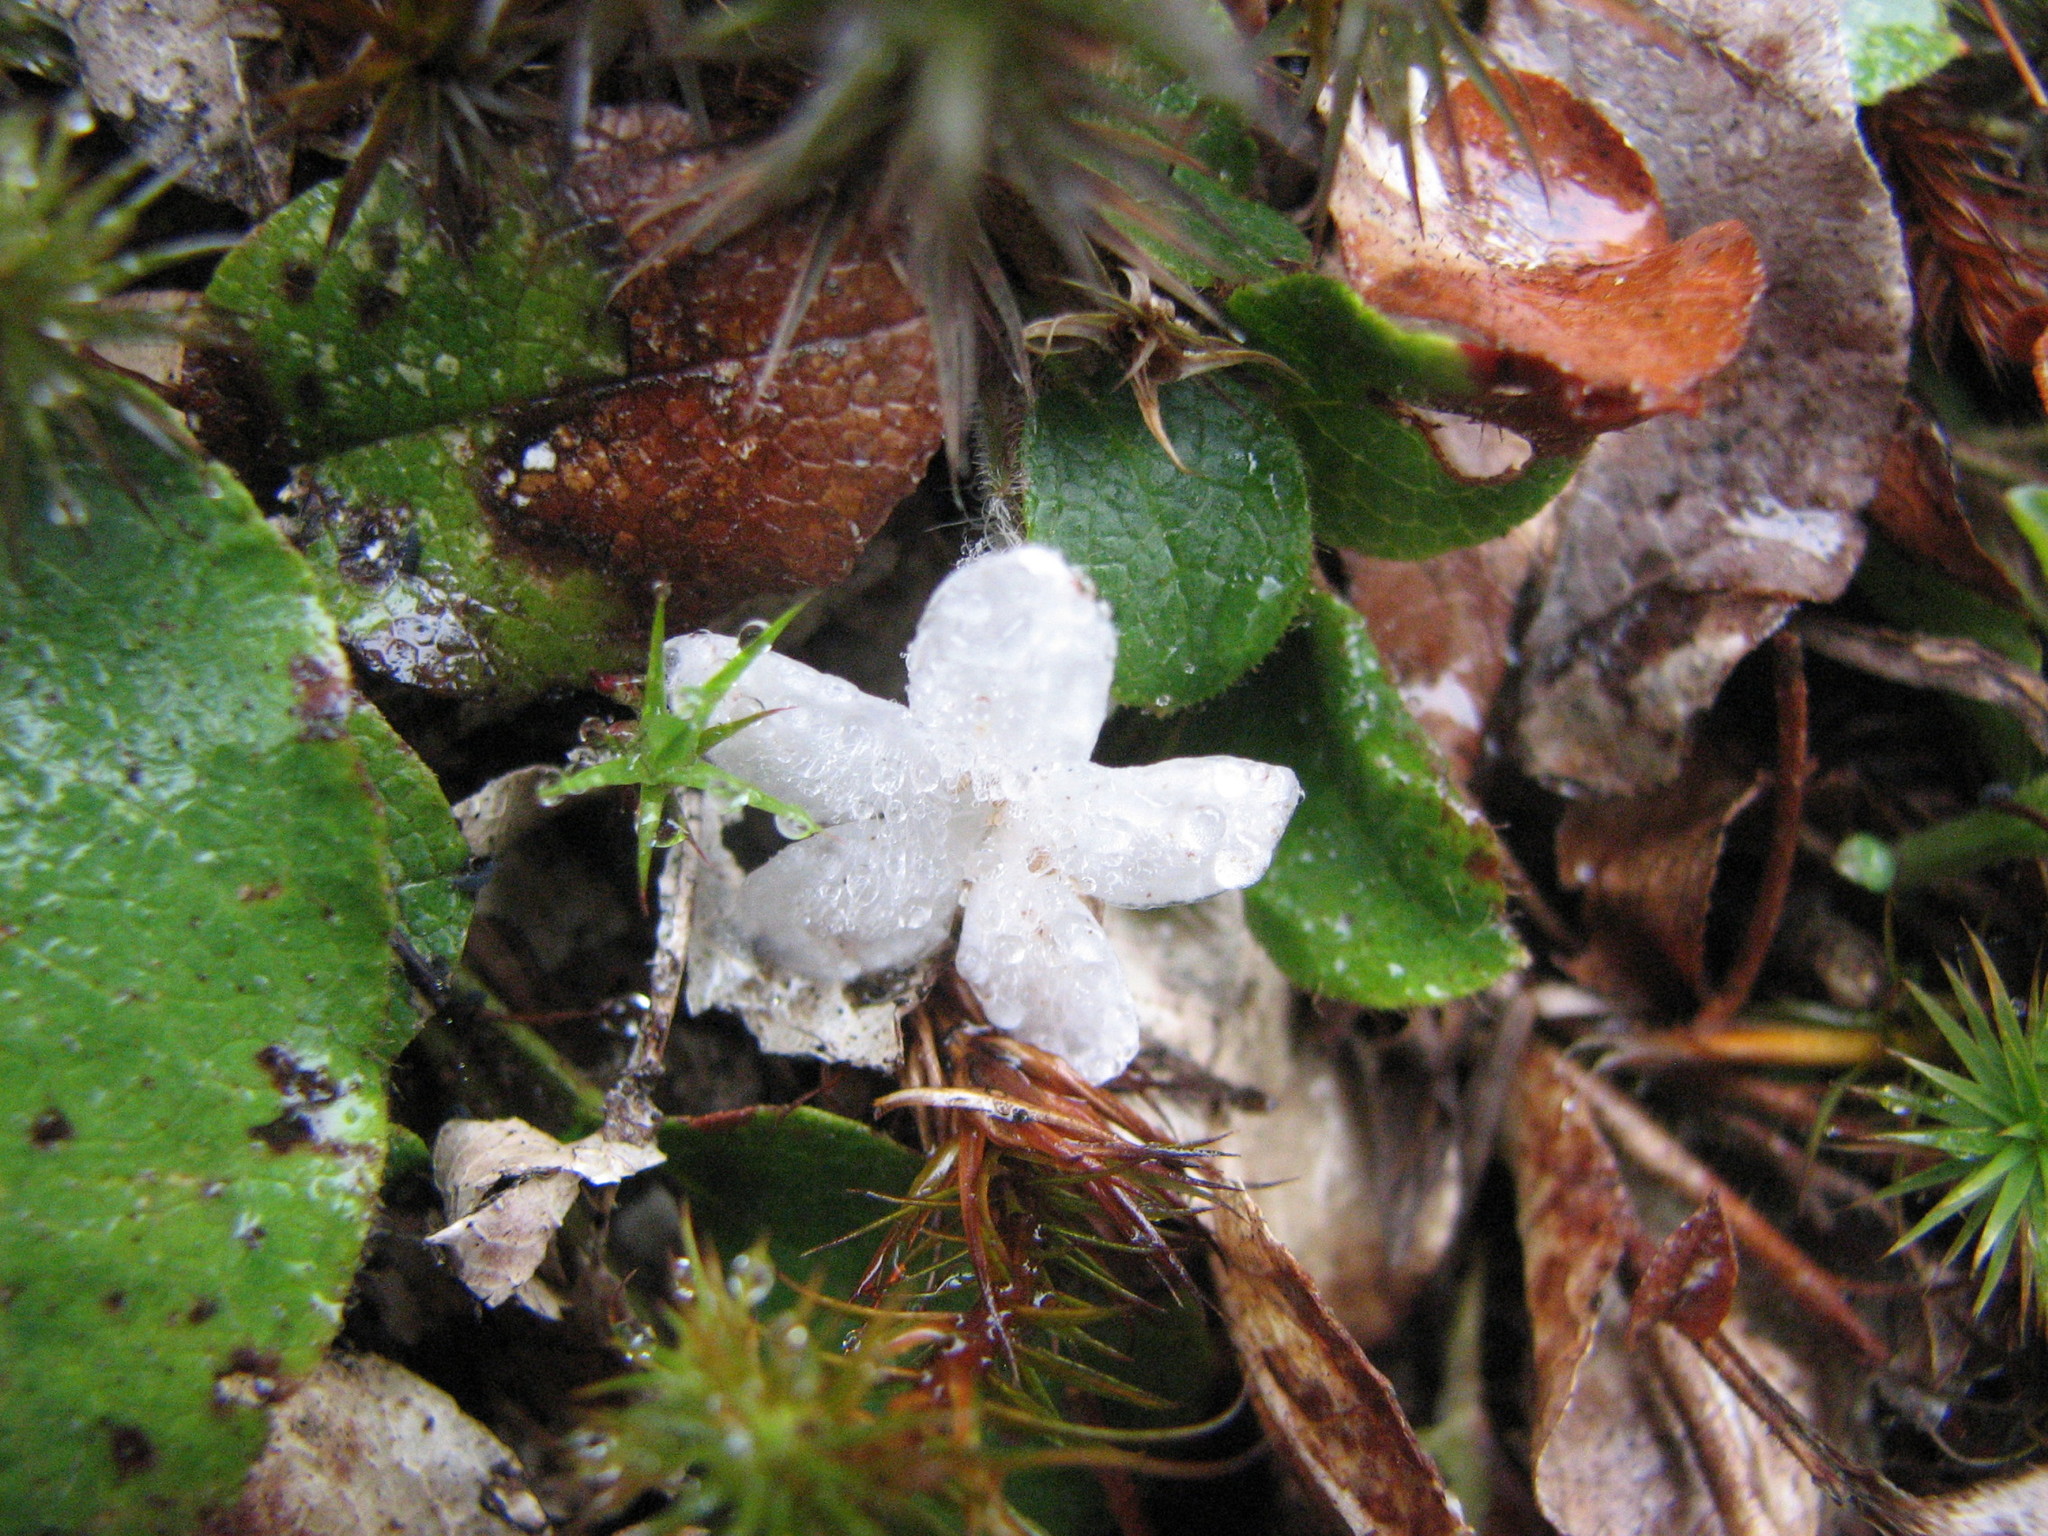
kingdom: Plantae
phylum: Tracheophyta
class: Magnoliopsida
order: Ericales
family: Ericaceae
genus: Epigaea
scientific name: Epigaea repens
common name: Gravelroot
